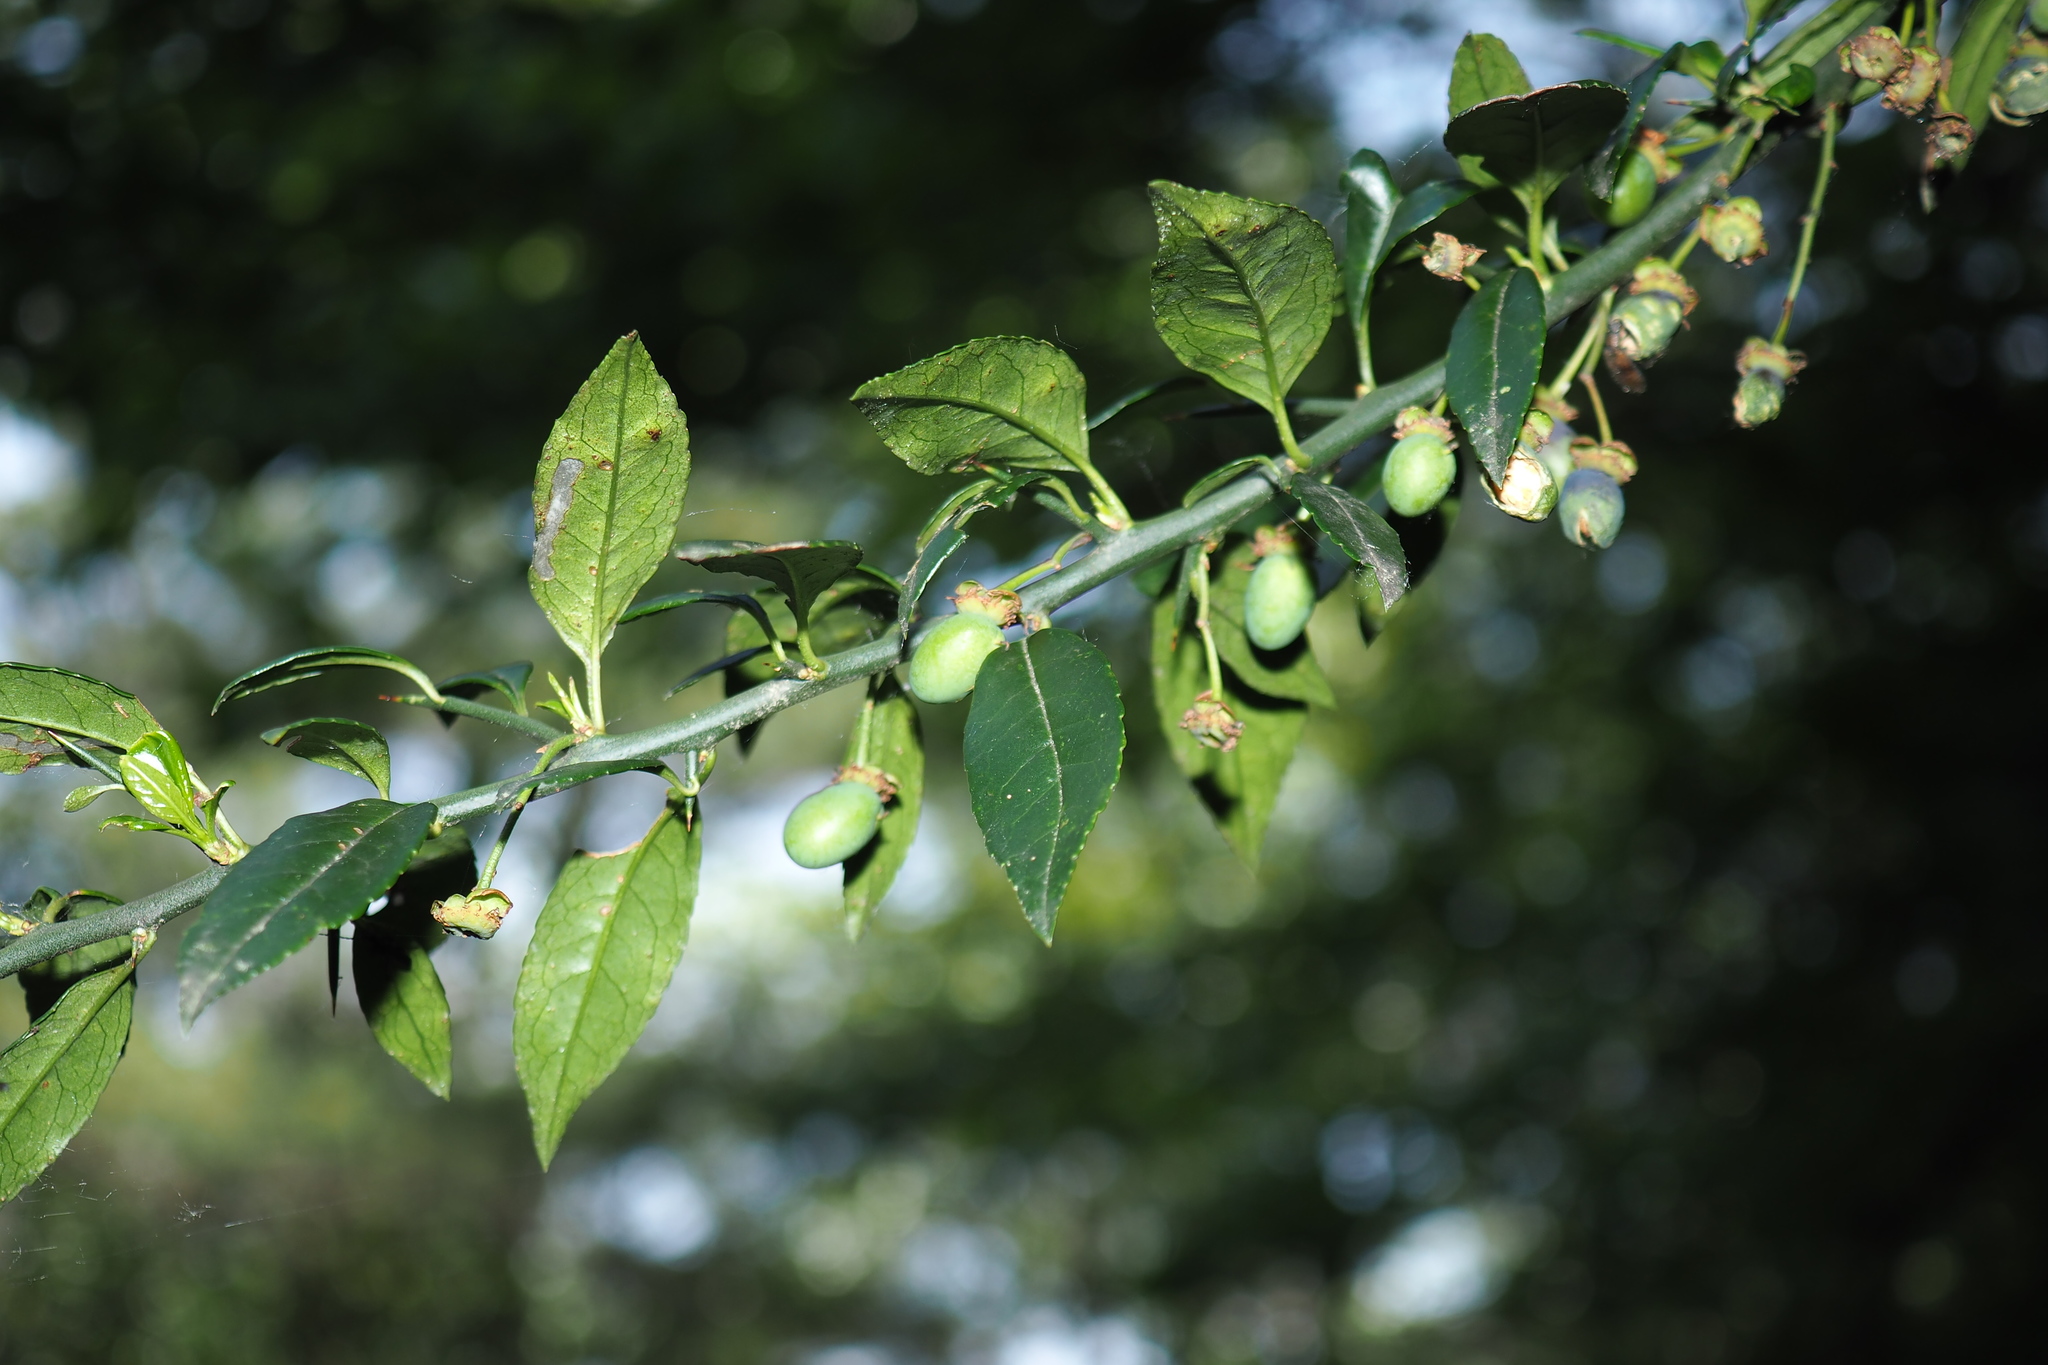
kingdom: Plantae
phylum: Tracheophyta
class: Magnoliopsida
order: Rosales
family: Rosaceae
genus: Prinsepia
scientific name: Prinsepia scandens
